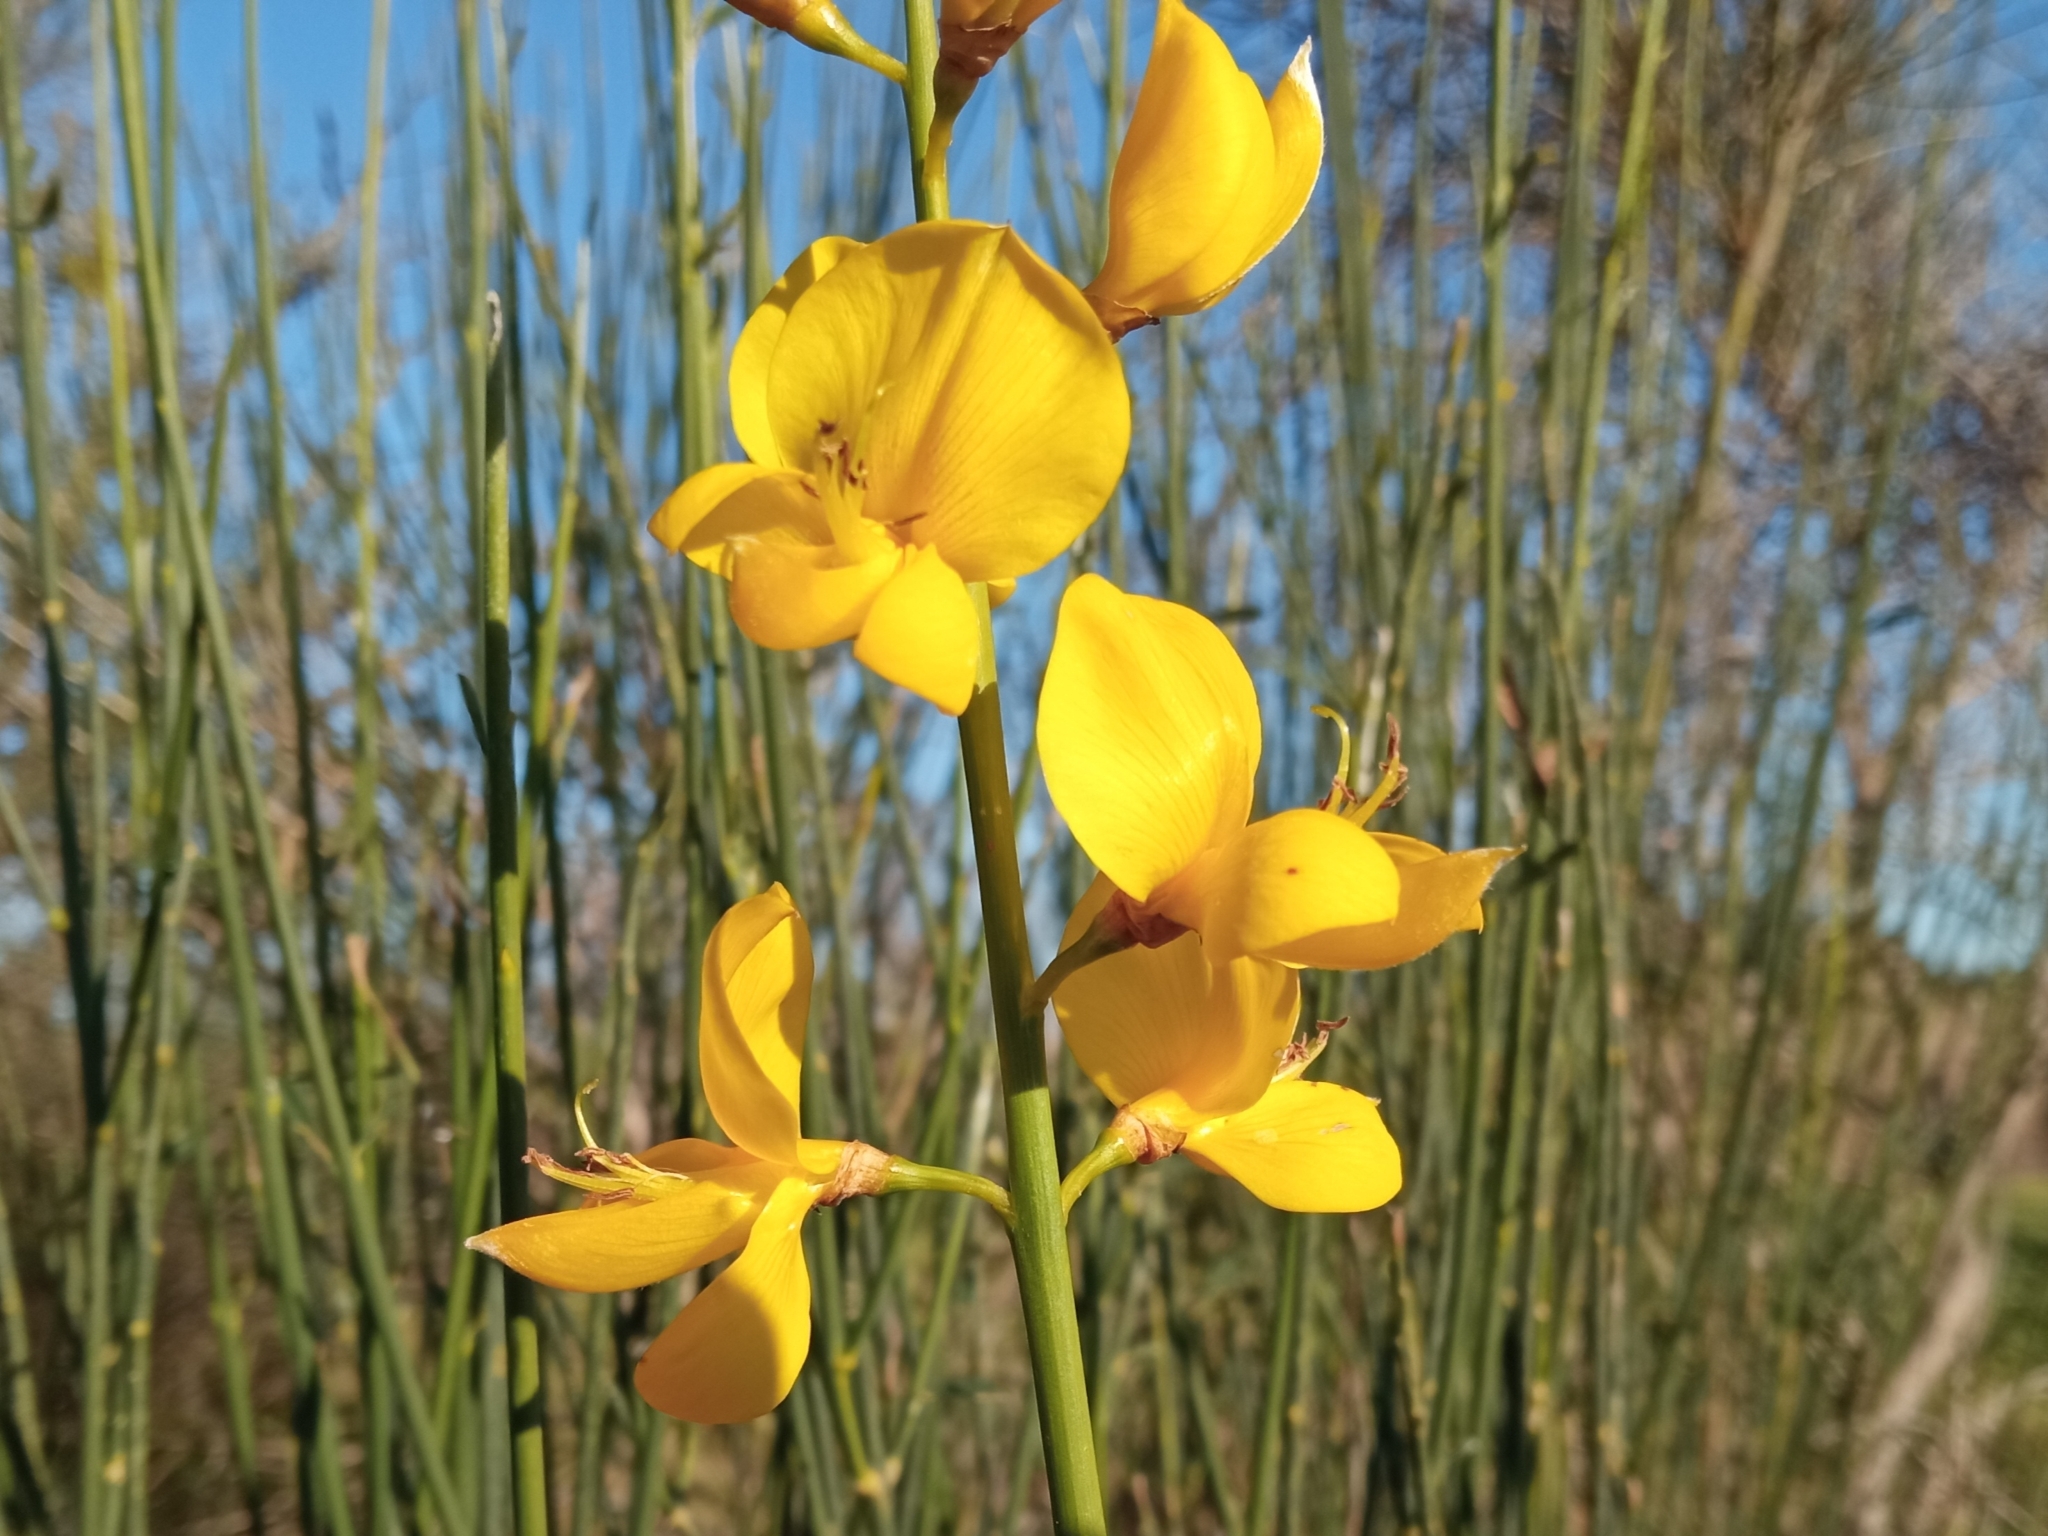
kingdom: Plantae
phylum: Tracheophyta
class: Magnoliopsida
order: Fabales
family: Fabaceae
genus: Spartium
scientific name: Spartium junceum
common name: Spanish broom
